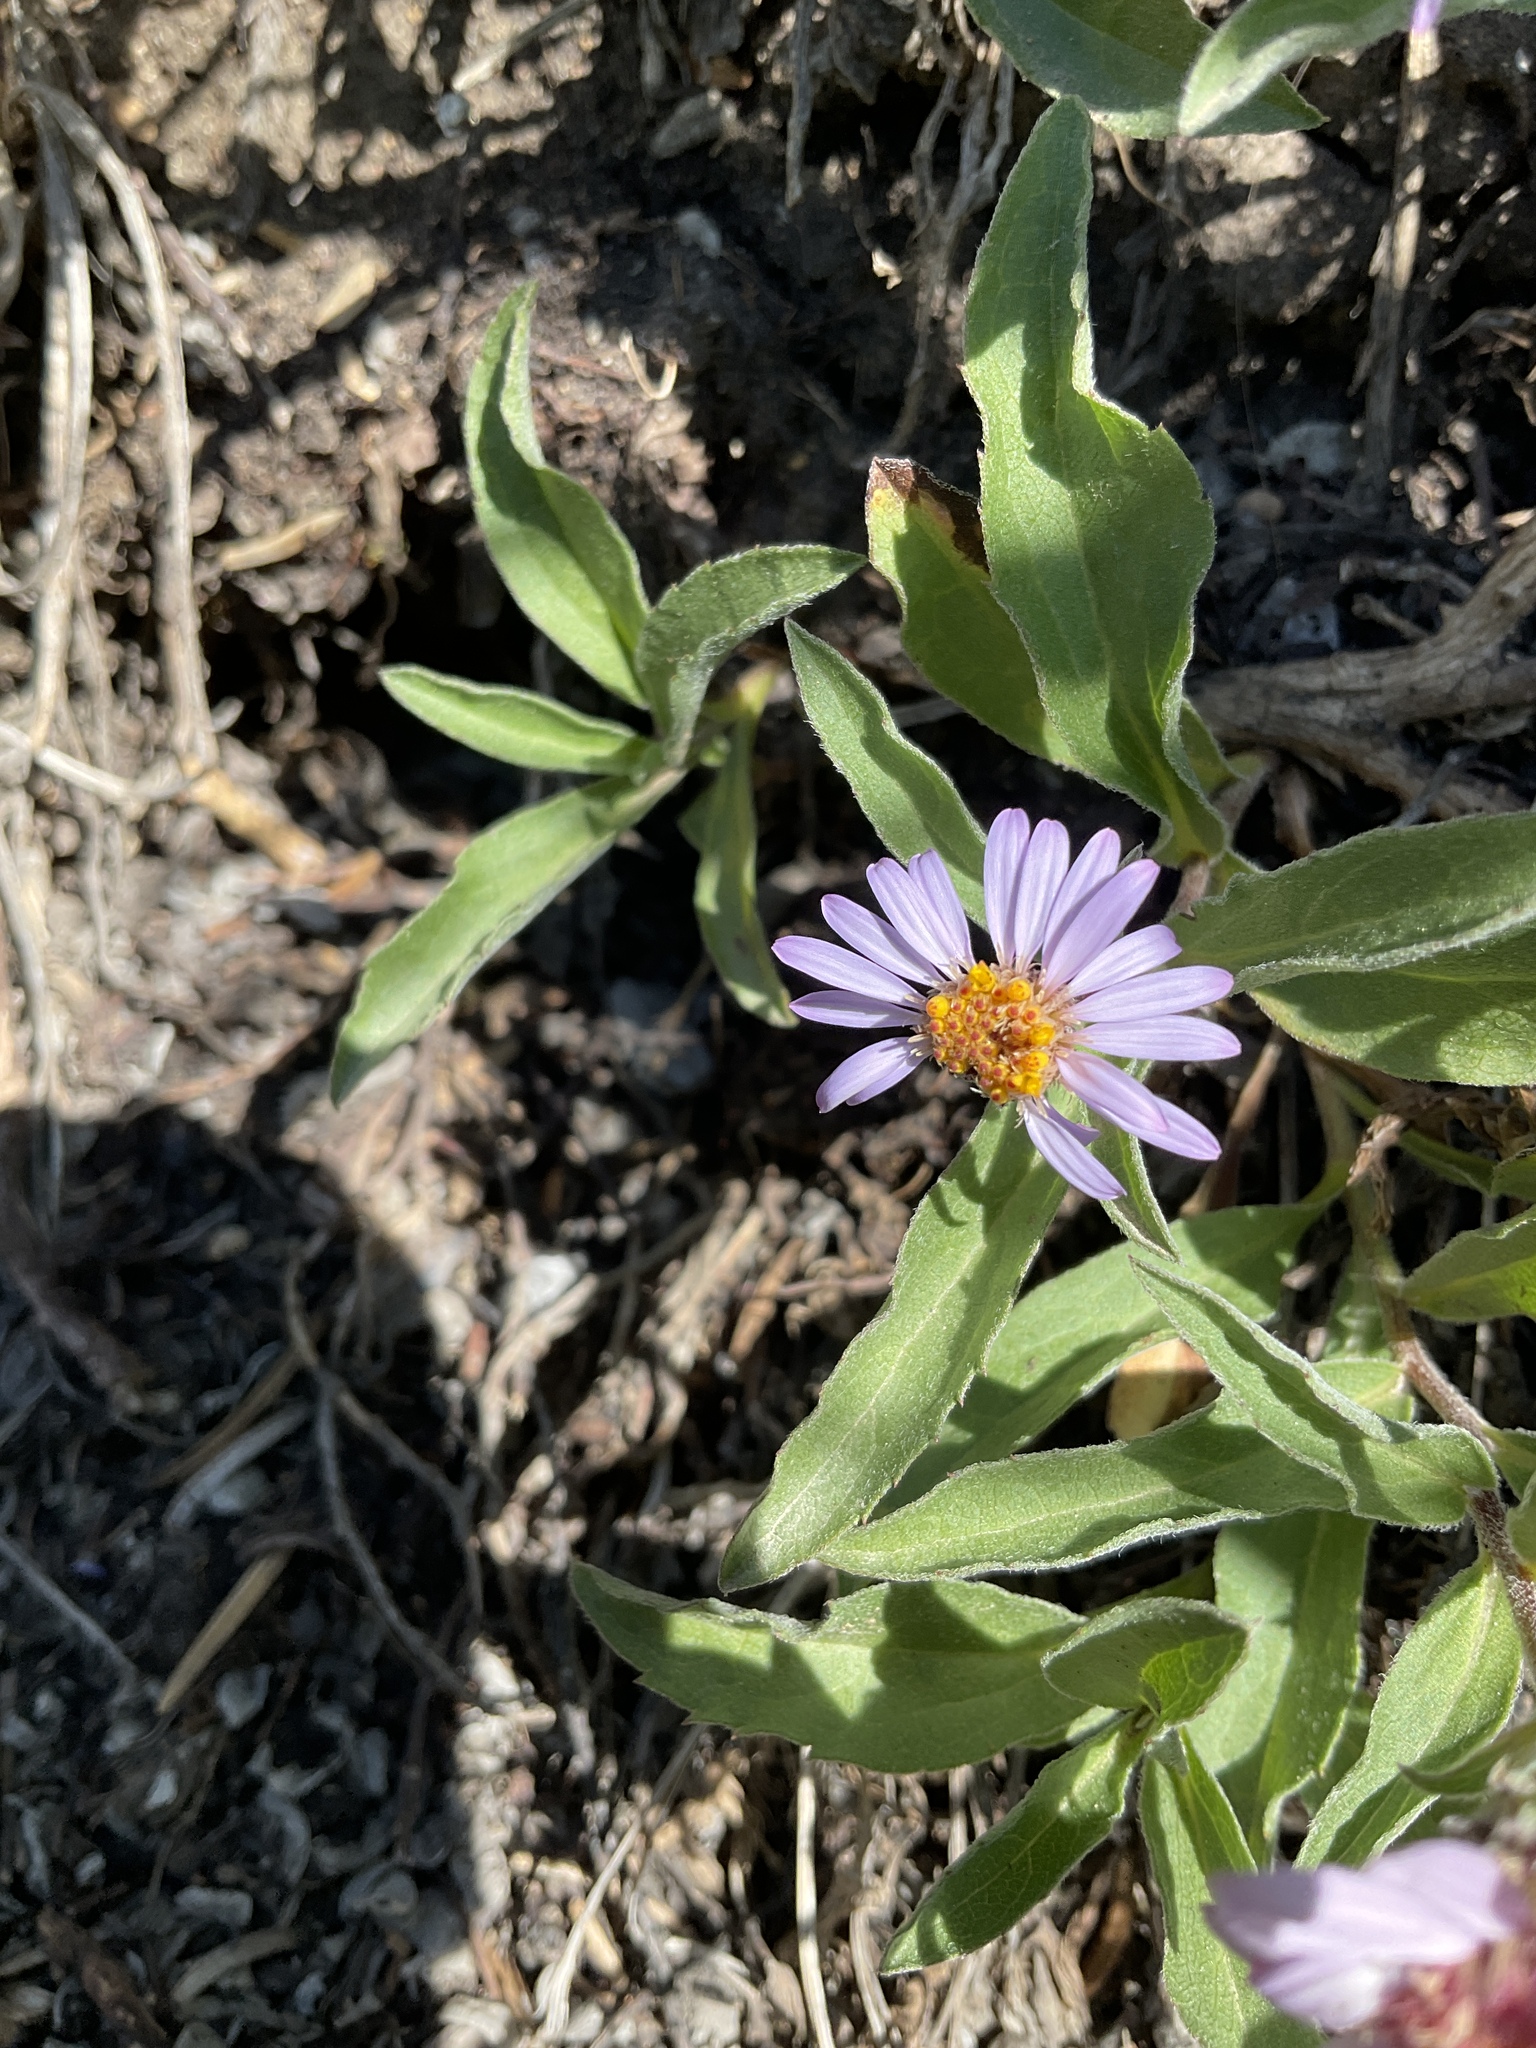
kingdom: Plantae
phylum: Tracheophyta
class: Magnoliopsida
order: Asterales
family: Asteraceae
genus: Eurybia
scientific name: Eurybia sibirica
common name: Arctic aster
